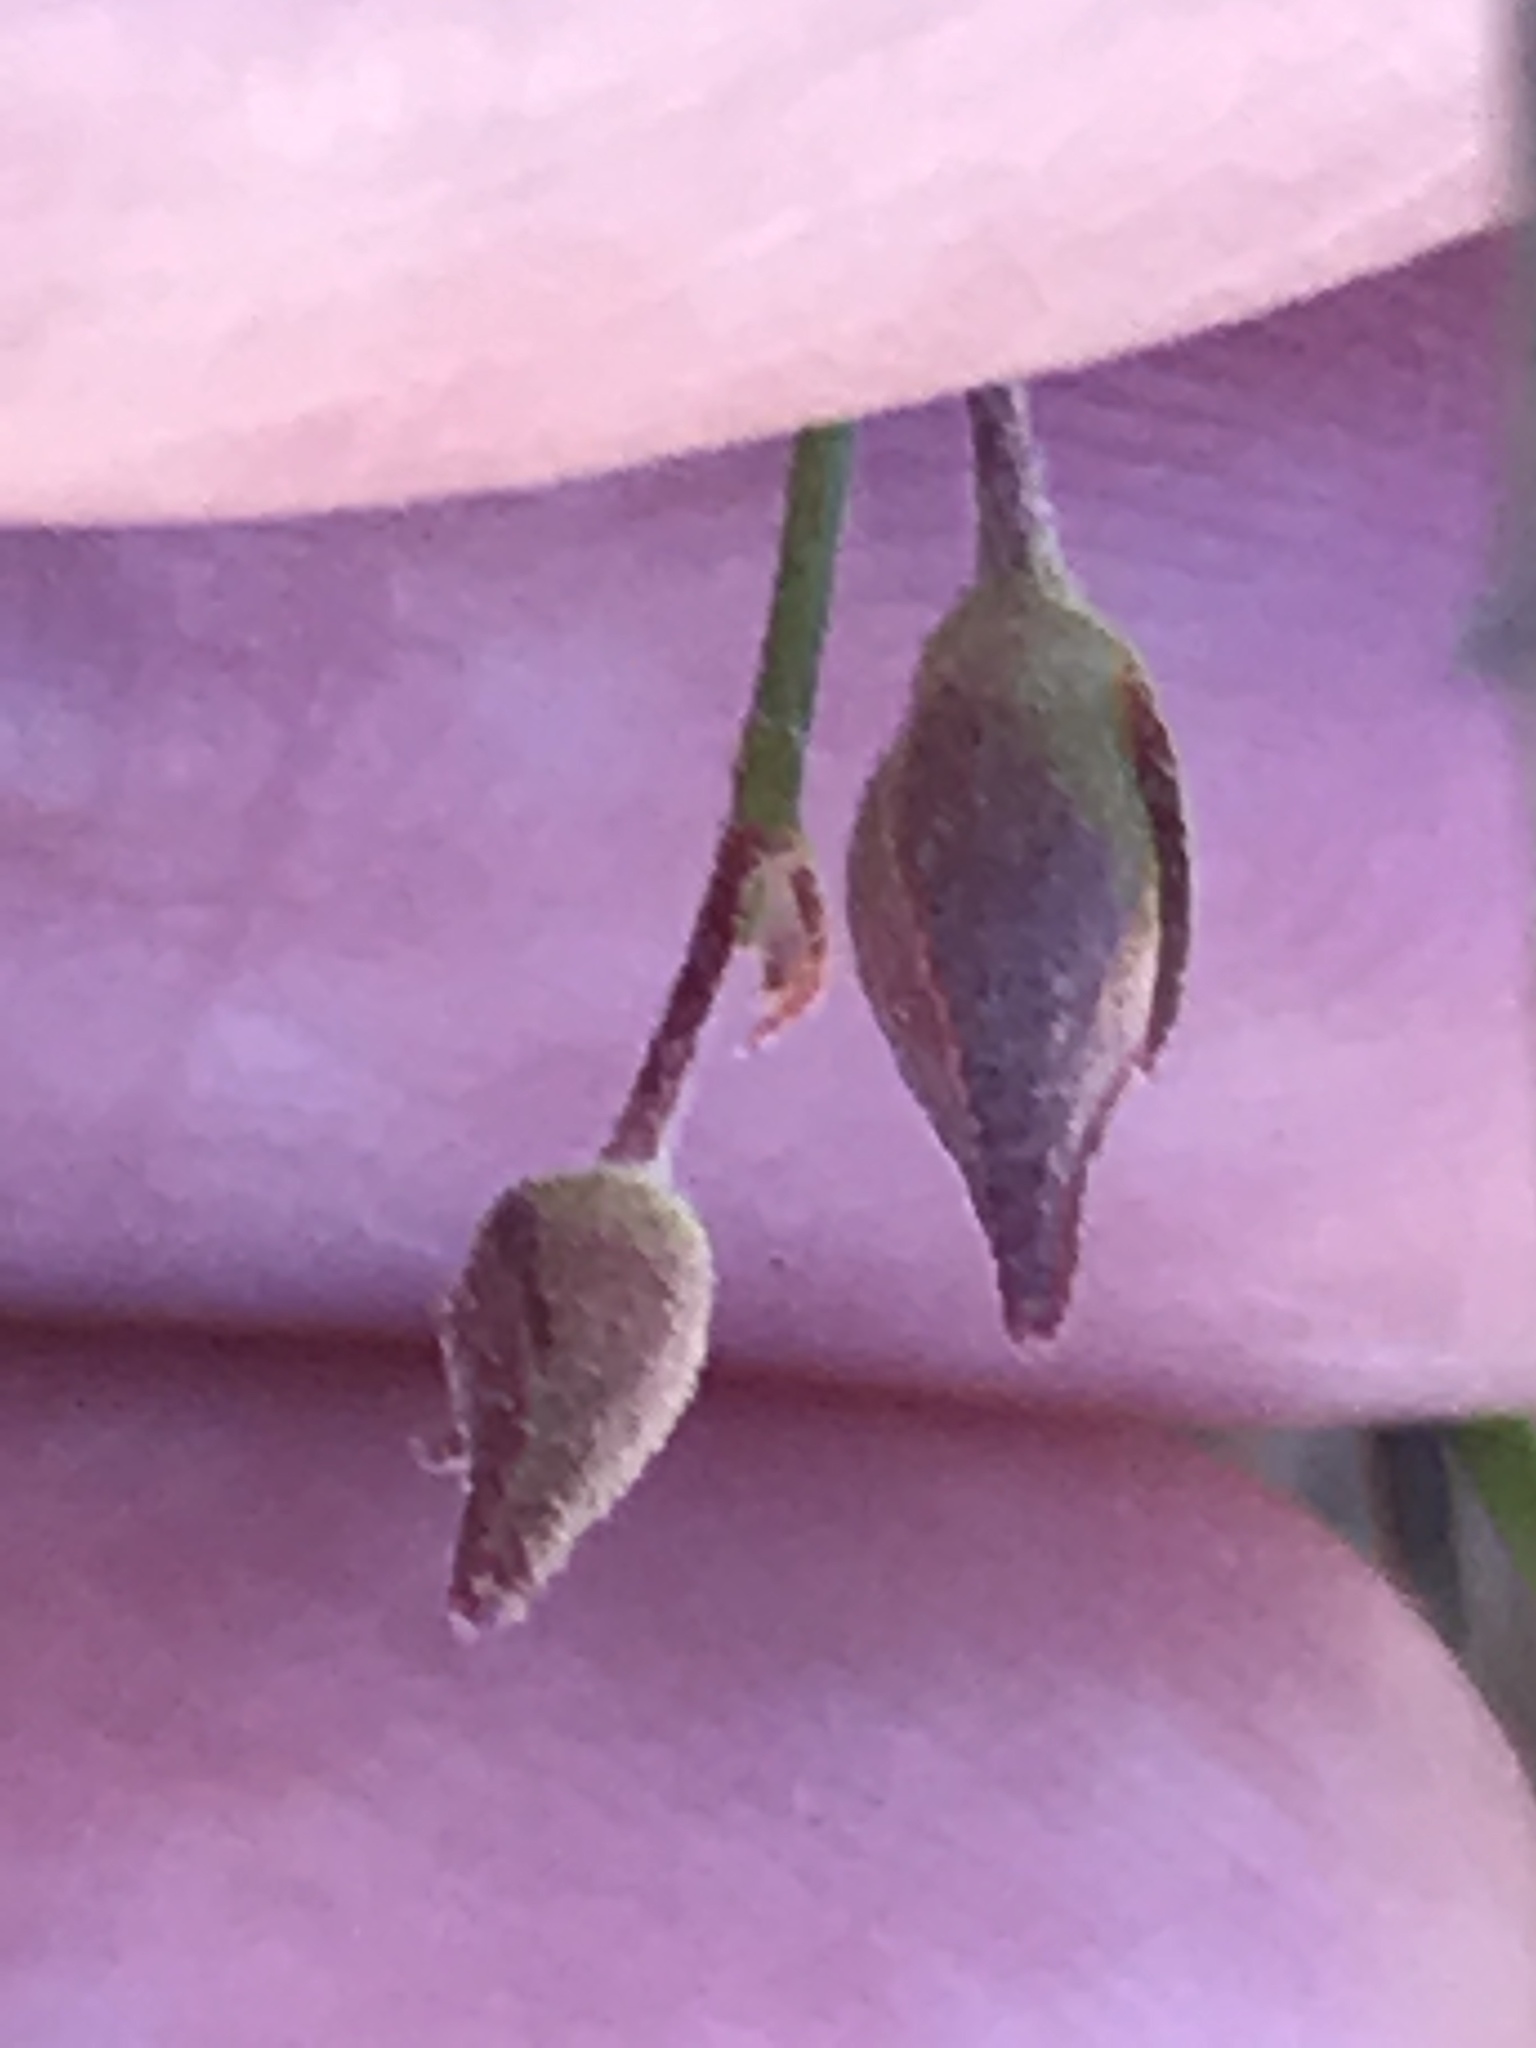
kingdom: Plantae
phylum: Tracheophyta
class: Magnoliopsida
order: Malvales
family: Cistaceae
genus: Crocanthemum
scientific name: Crocanthemum scoparium
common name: Broom-rose
